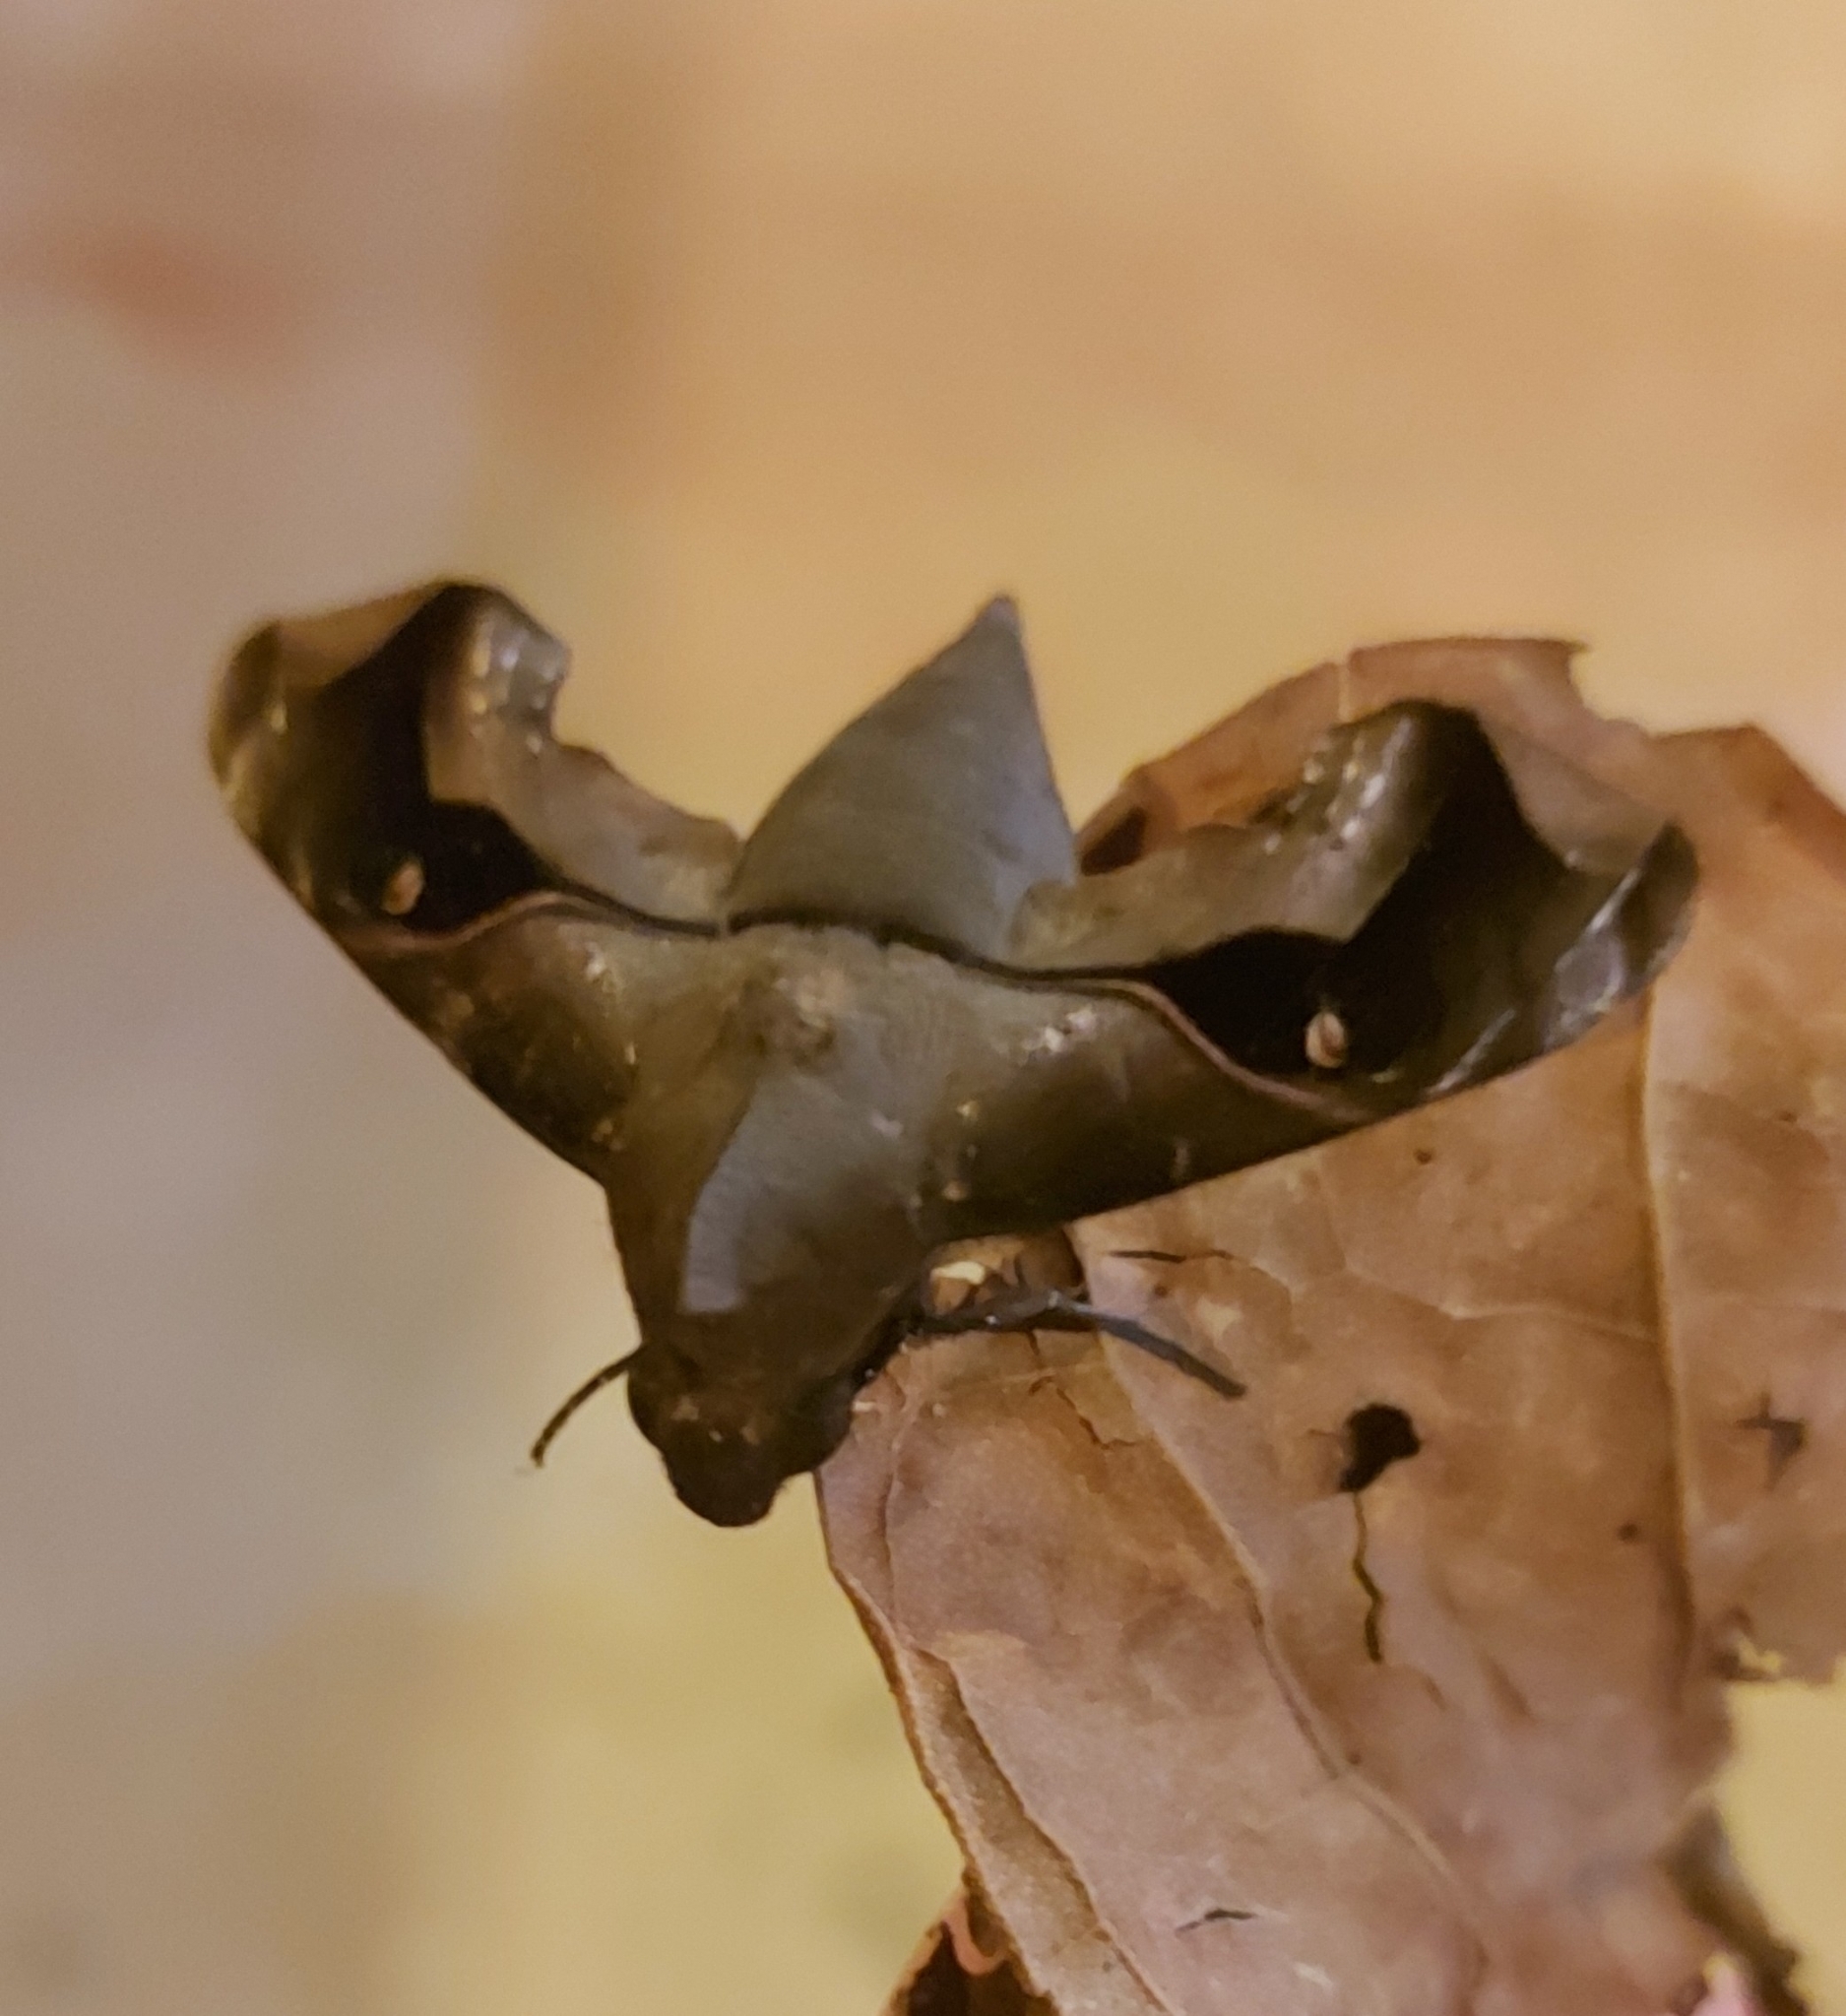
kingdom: Animalia
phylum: Arthropoda
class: Insecta
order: Lepidoptera
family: Sphingidae
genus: Enyo
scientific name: Enyo gorgon
